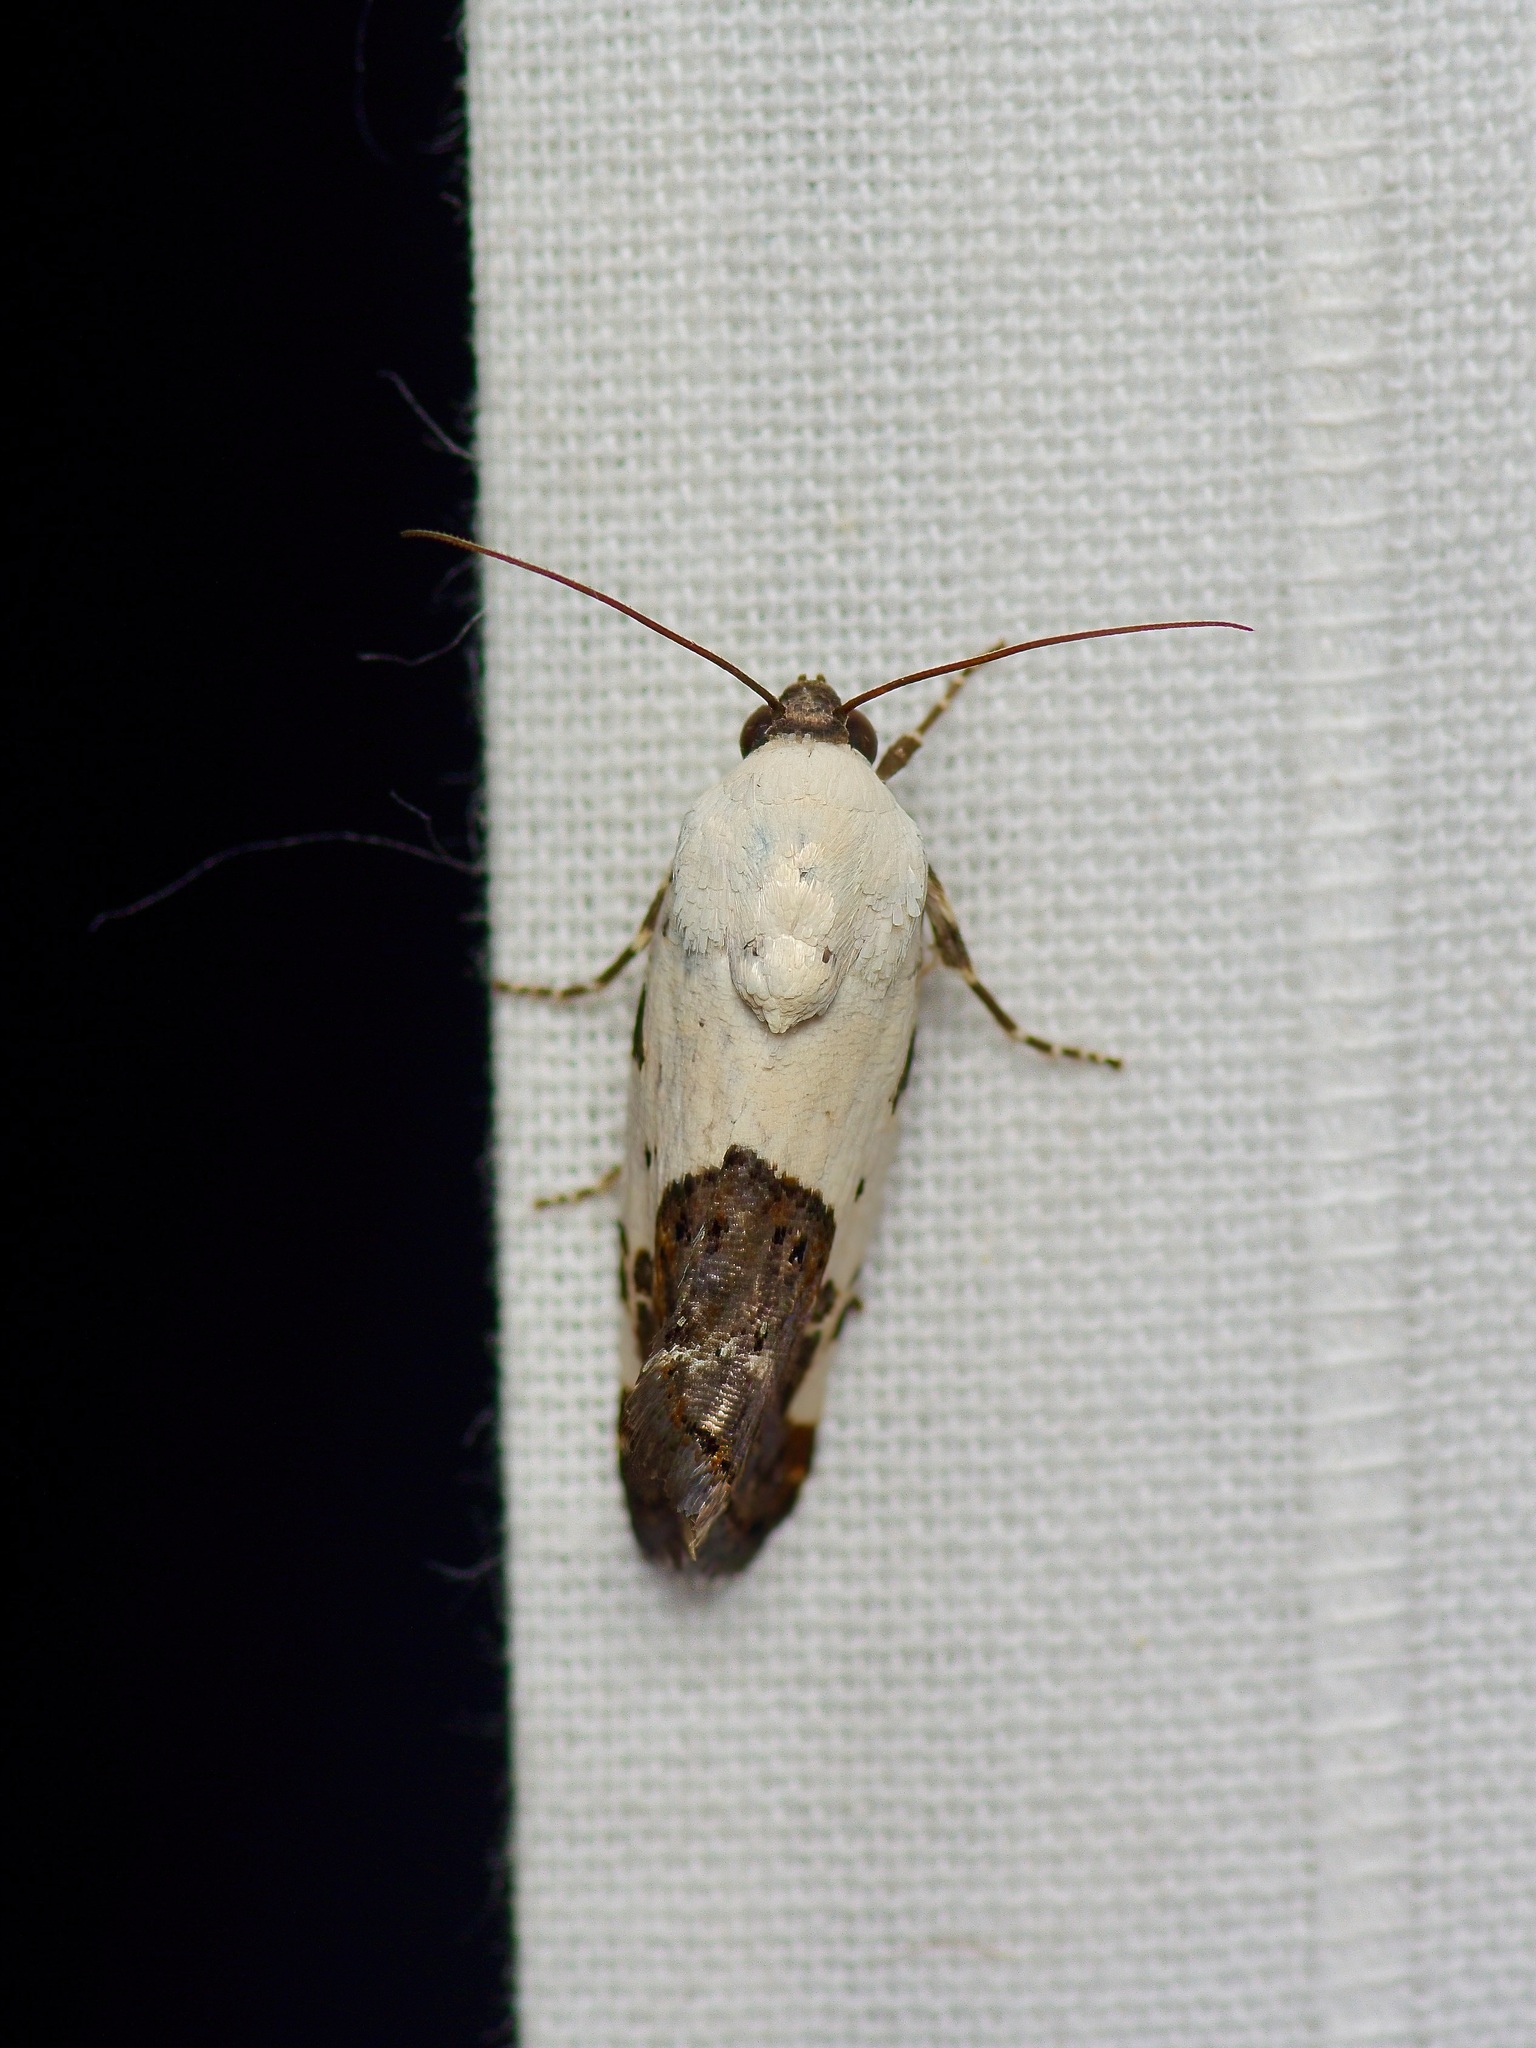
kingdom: Animalia
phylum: Arthropoda
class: Insecta
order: Lepidoptera
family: Noctuidae
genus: Acontia
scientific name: Acontia aprica
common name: Nun
